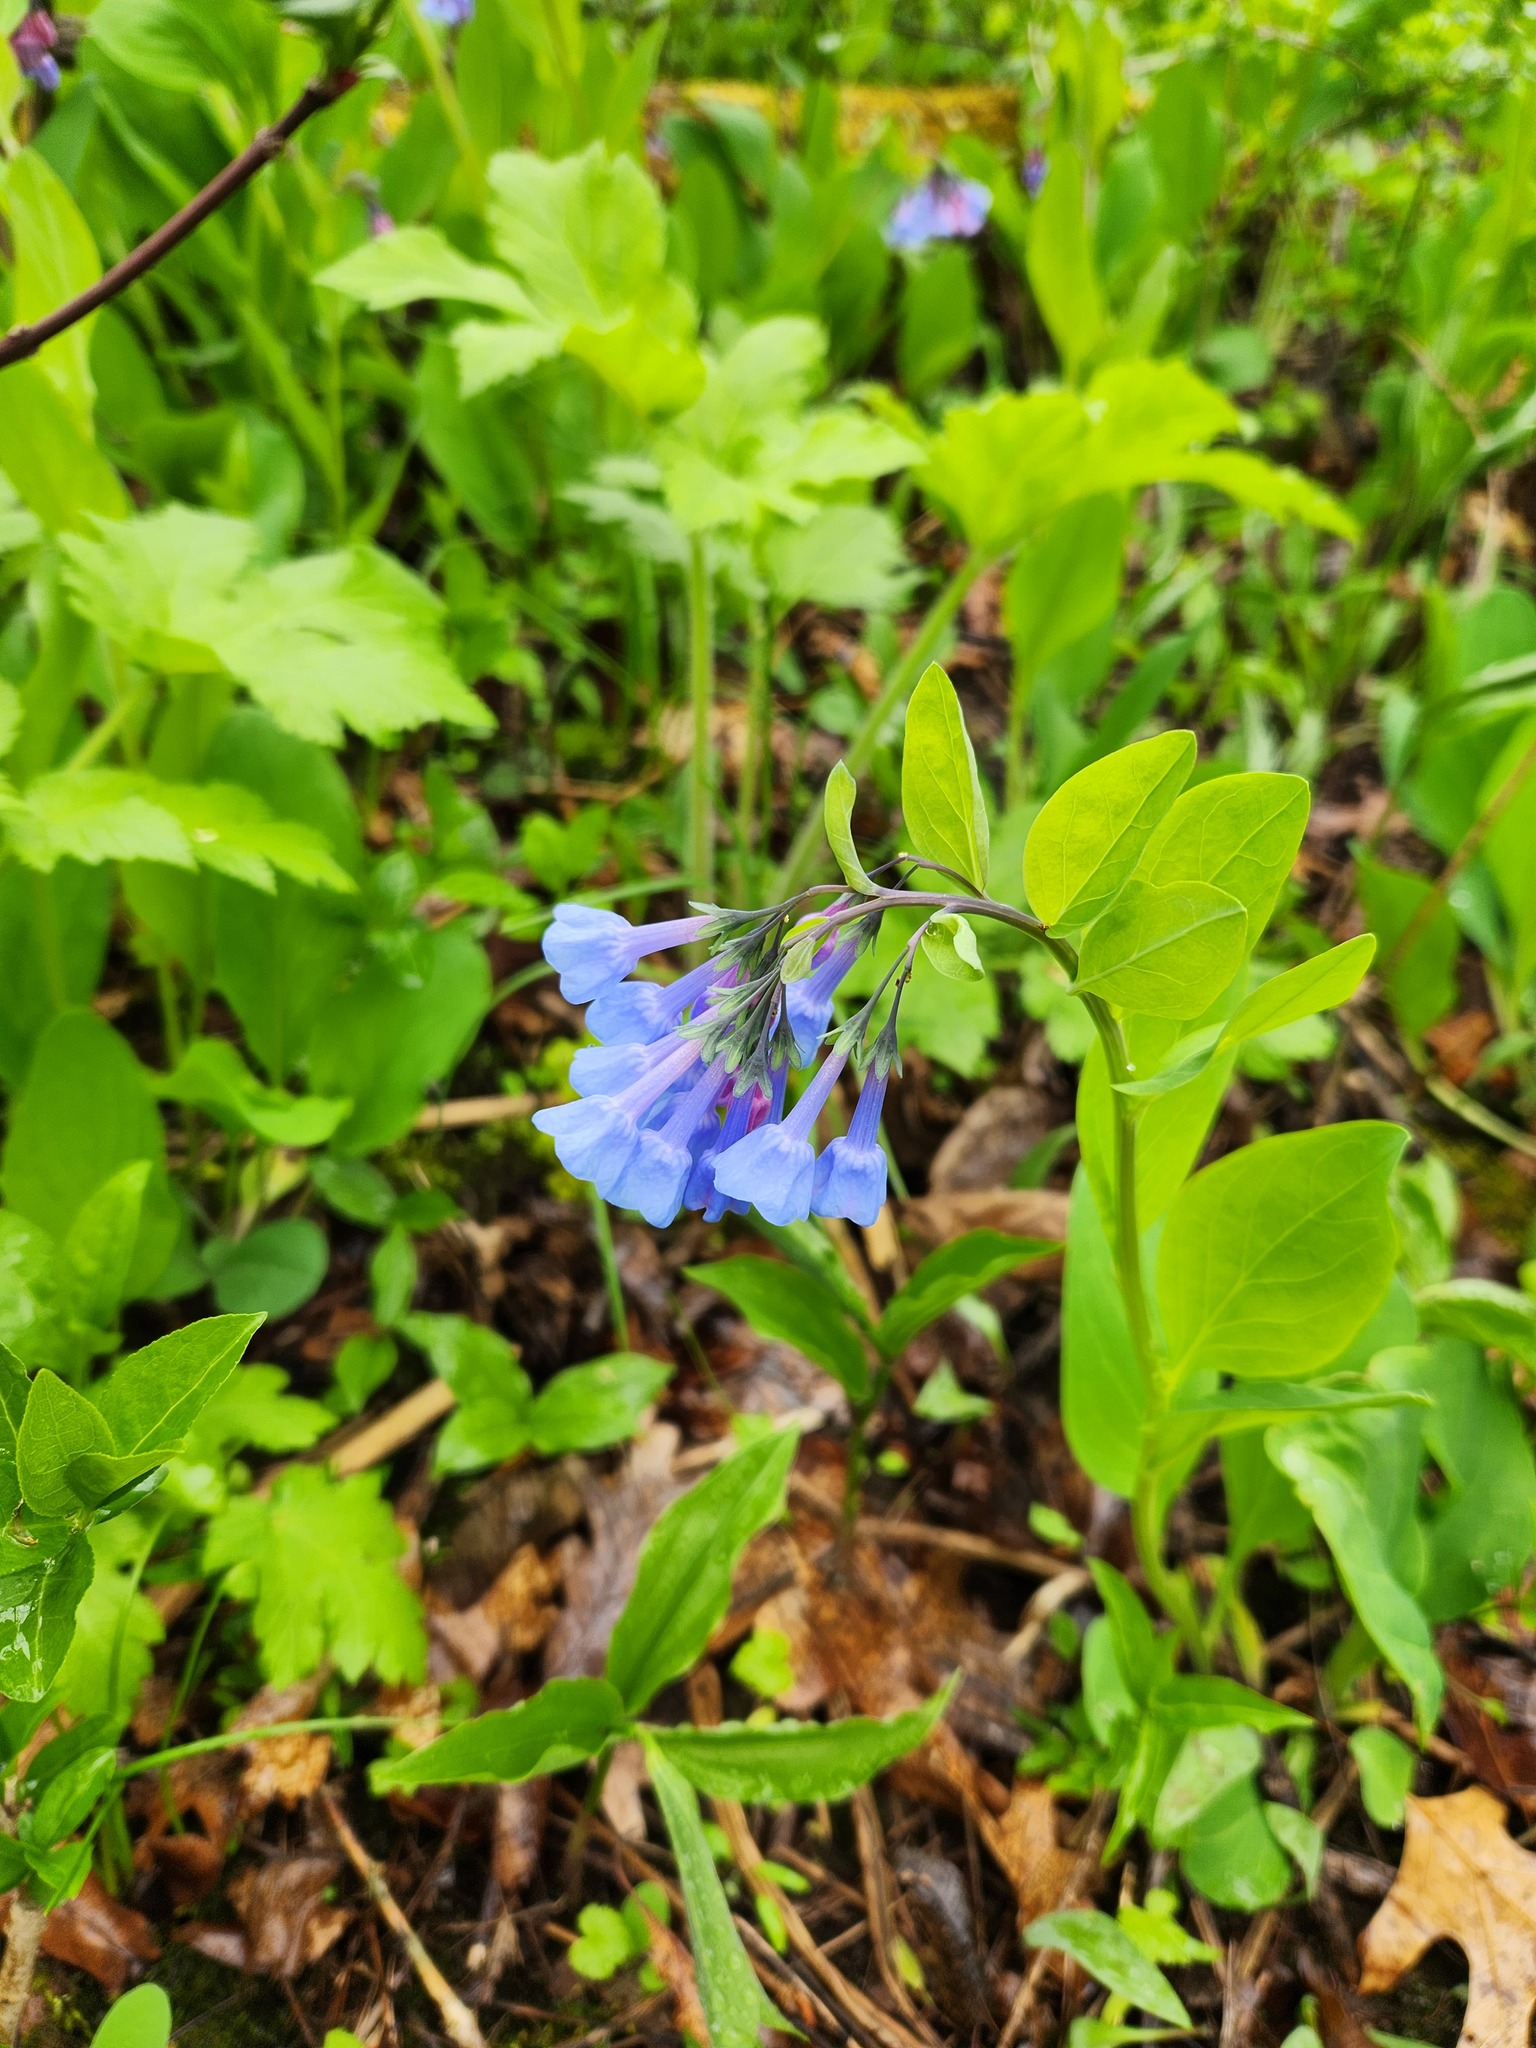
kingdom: Plantae
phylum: Tracheophyta
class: Magnoliopsida
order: Boraginales
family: Boraginaceae
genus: Mertensia
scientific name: Mertensia virginica
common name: Virginia bluebells
